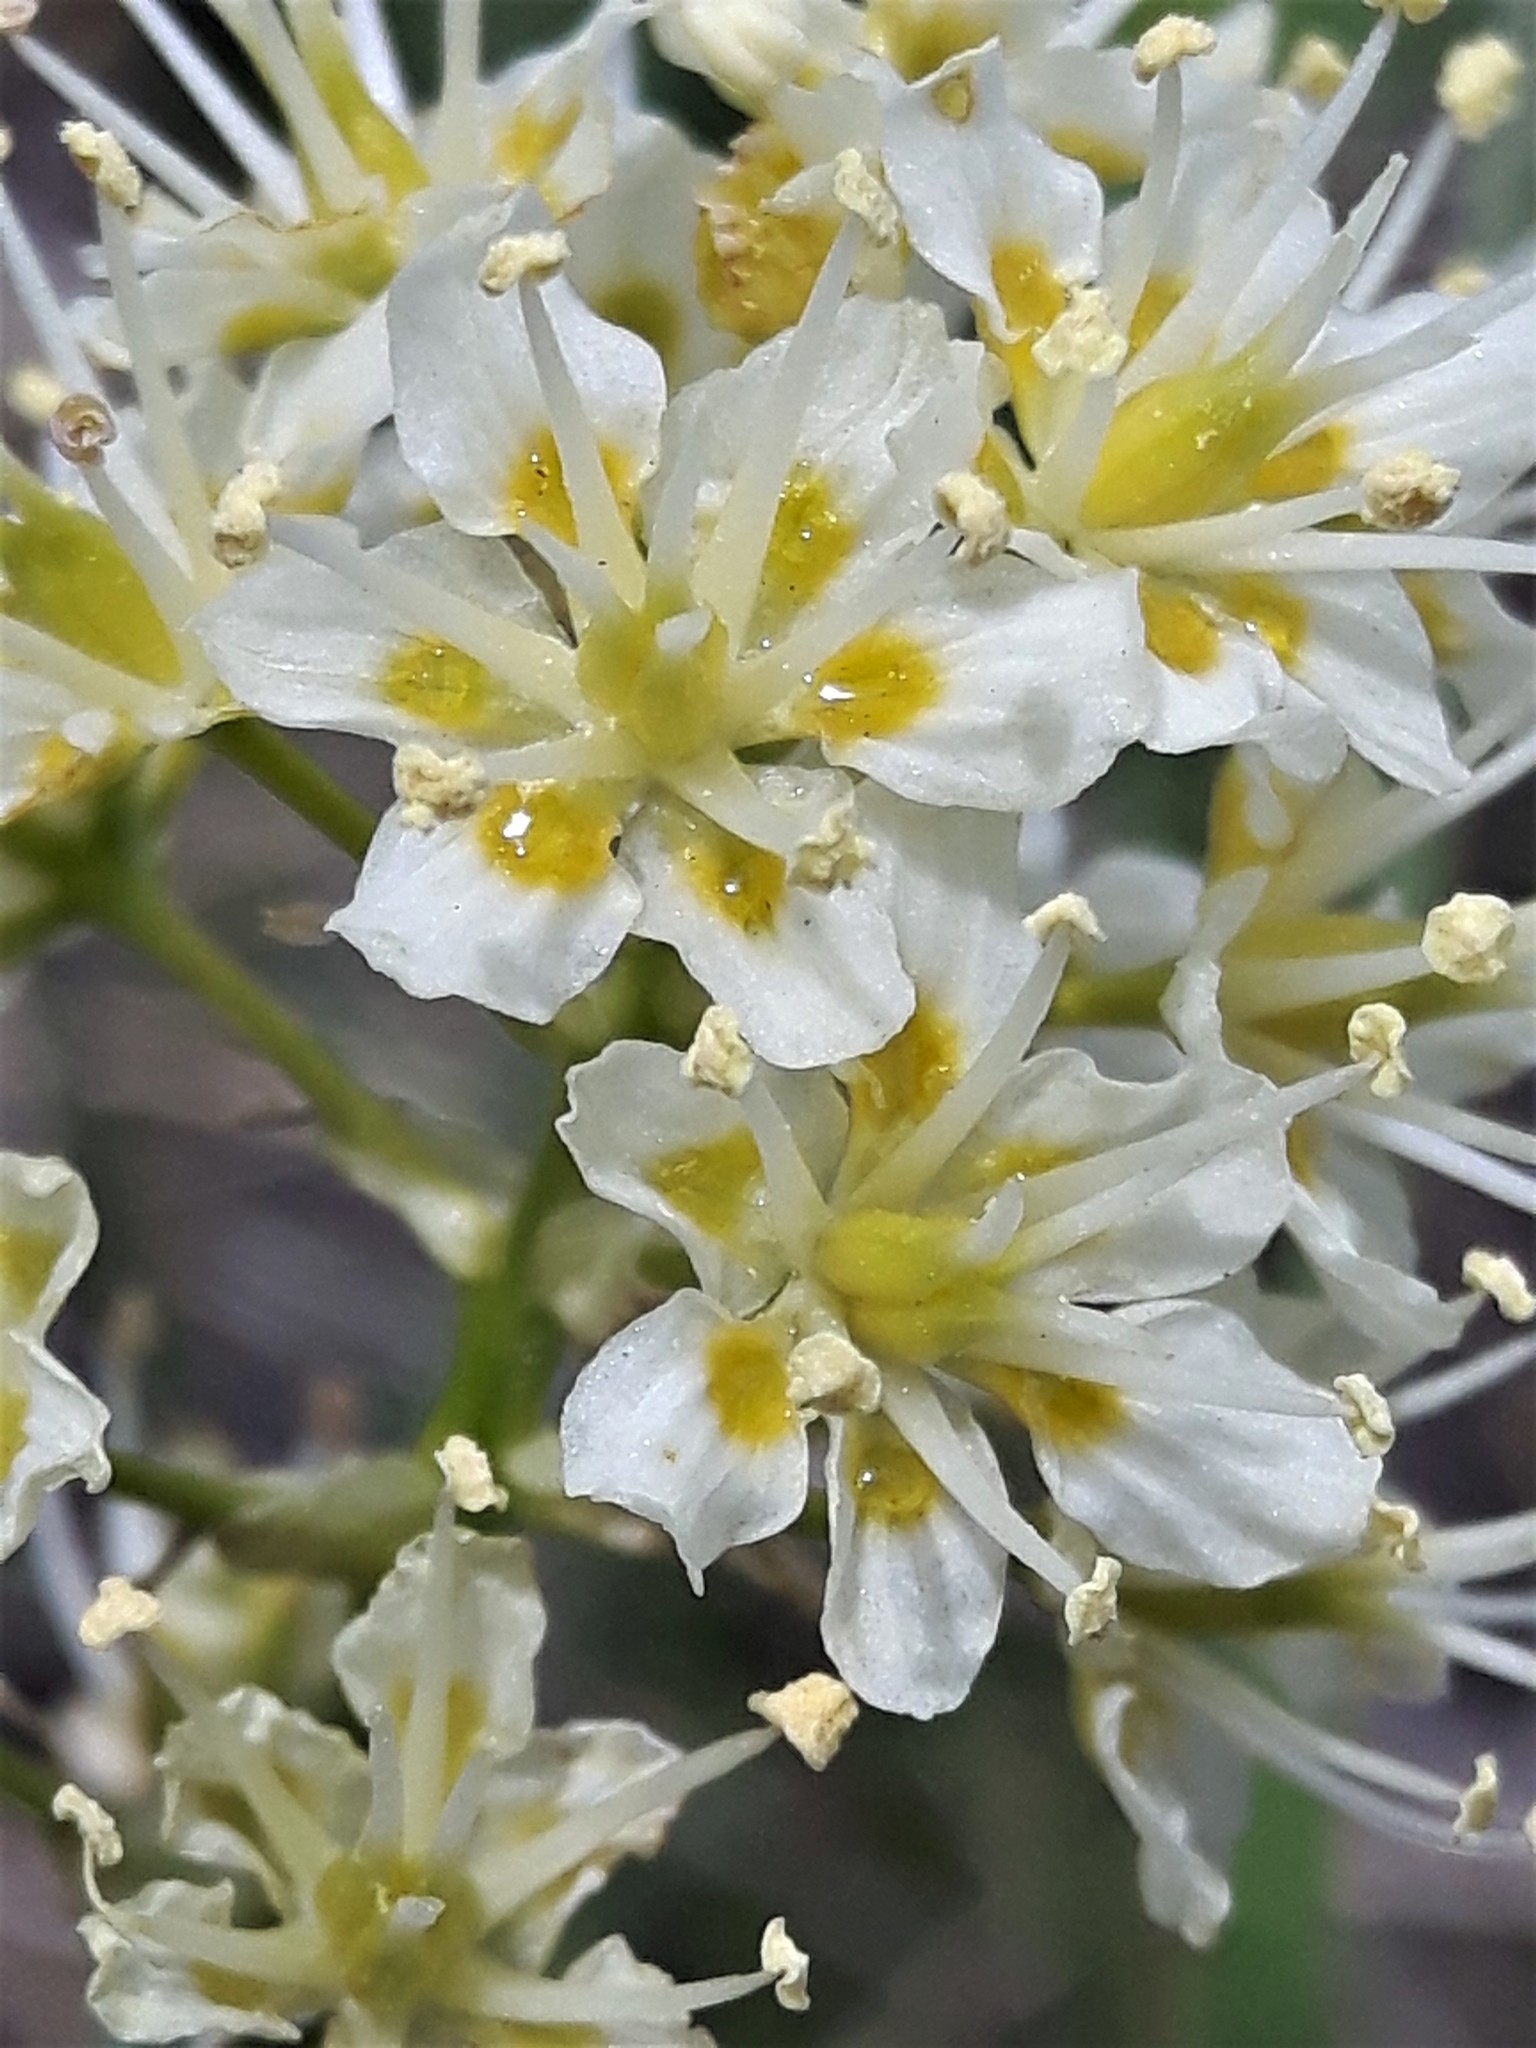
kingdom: Plantae
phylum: Tracheophyta
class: Liliopsida
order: Liliales
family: Melanthiaceae
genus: Toxicoscordion
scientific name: Toxicoscordion venenosum
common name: Meadow death camas
